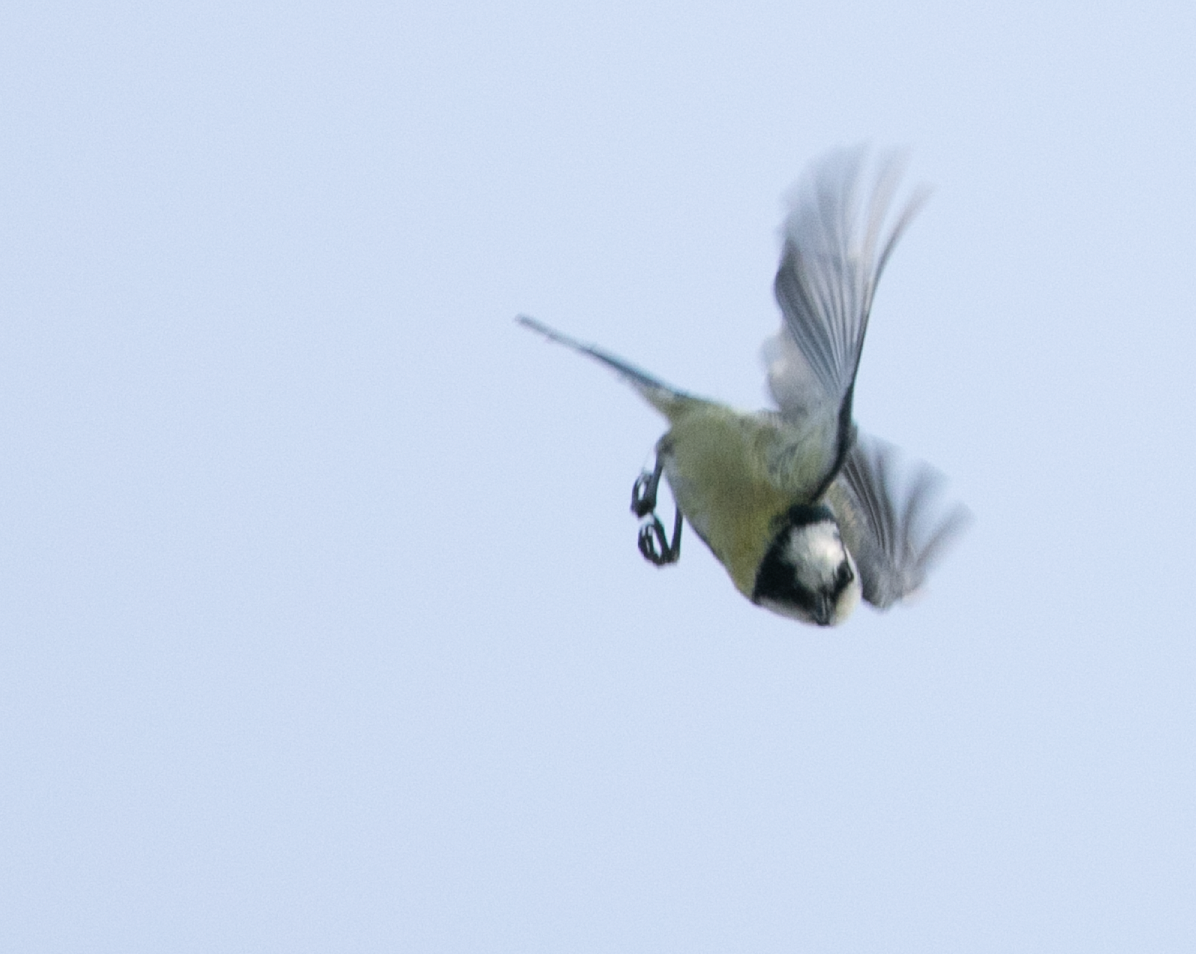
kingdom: Animalia
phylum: Chordata
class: Aves
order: Passeriformes
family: Paridae
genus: Cyanistes
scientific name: Cyanistes caeruleus
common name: Eurasian blue tit
